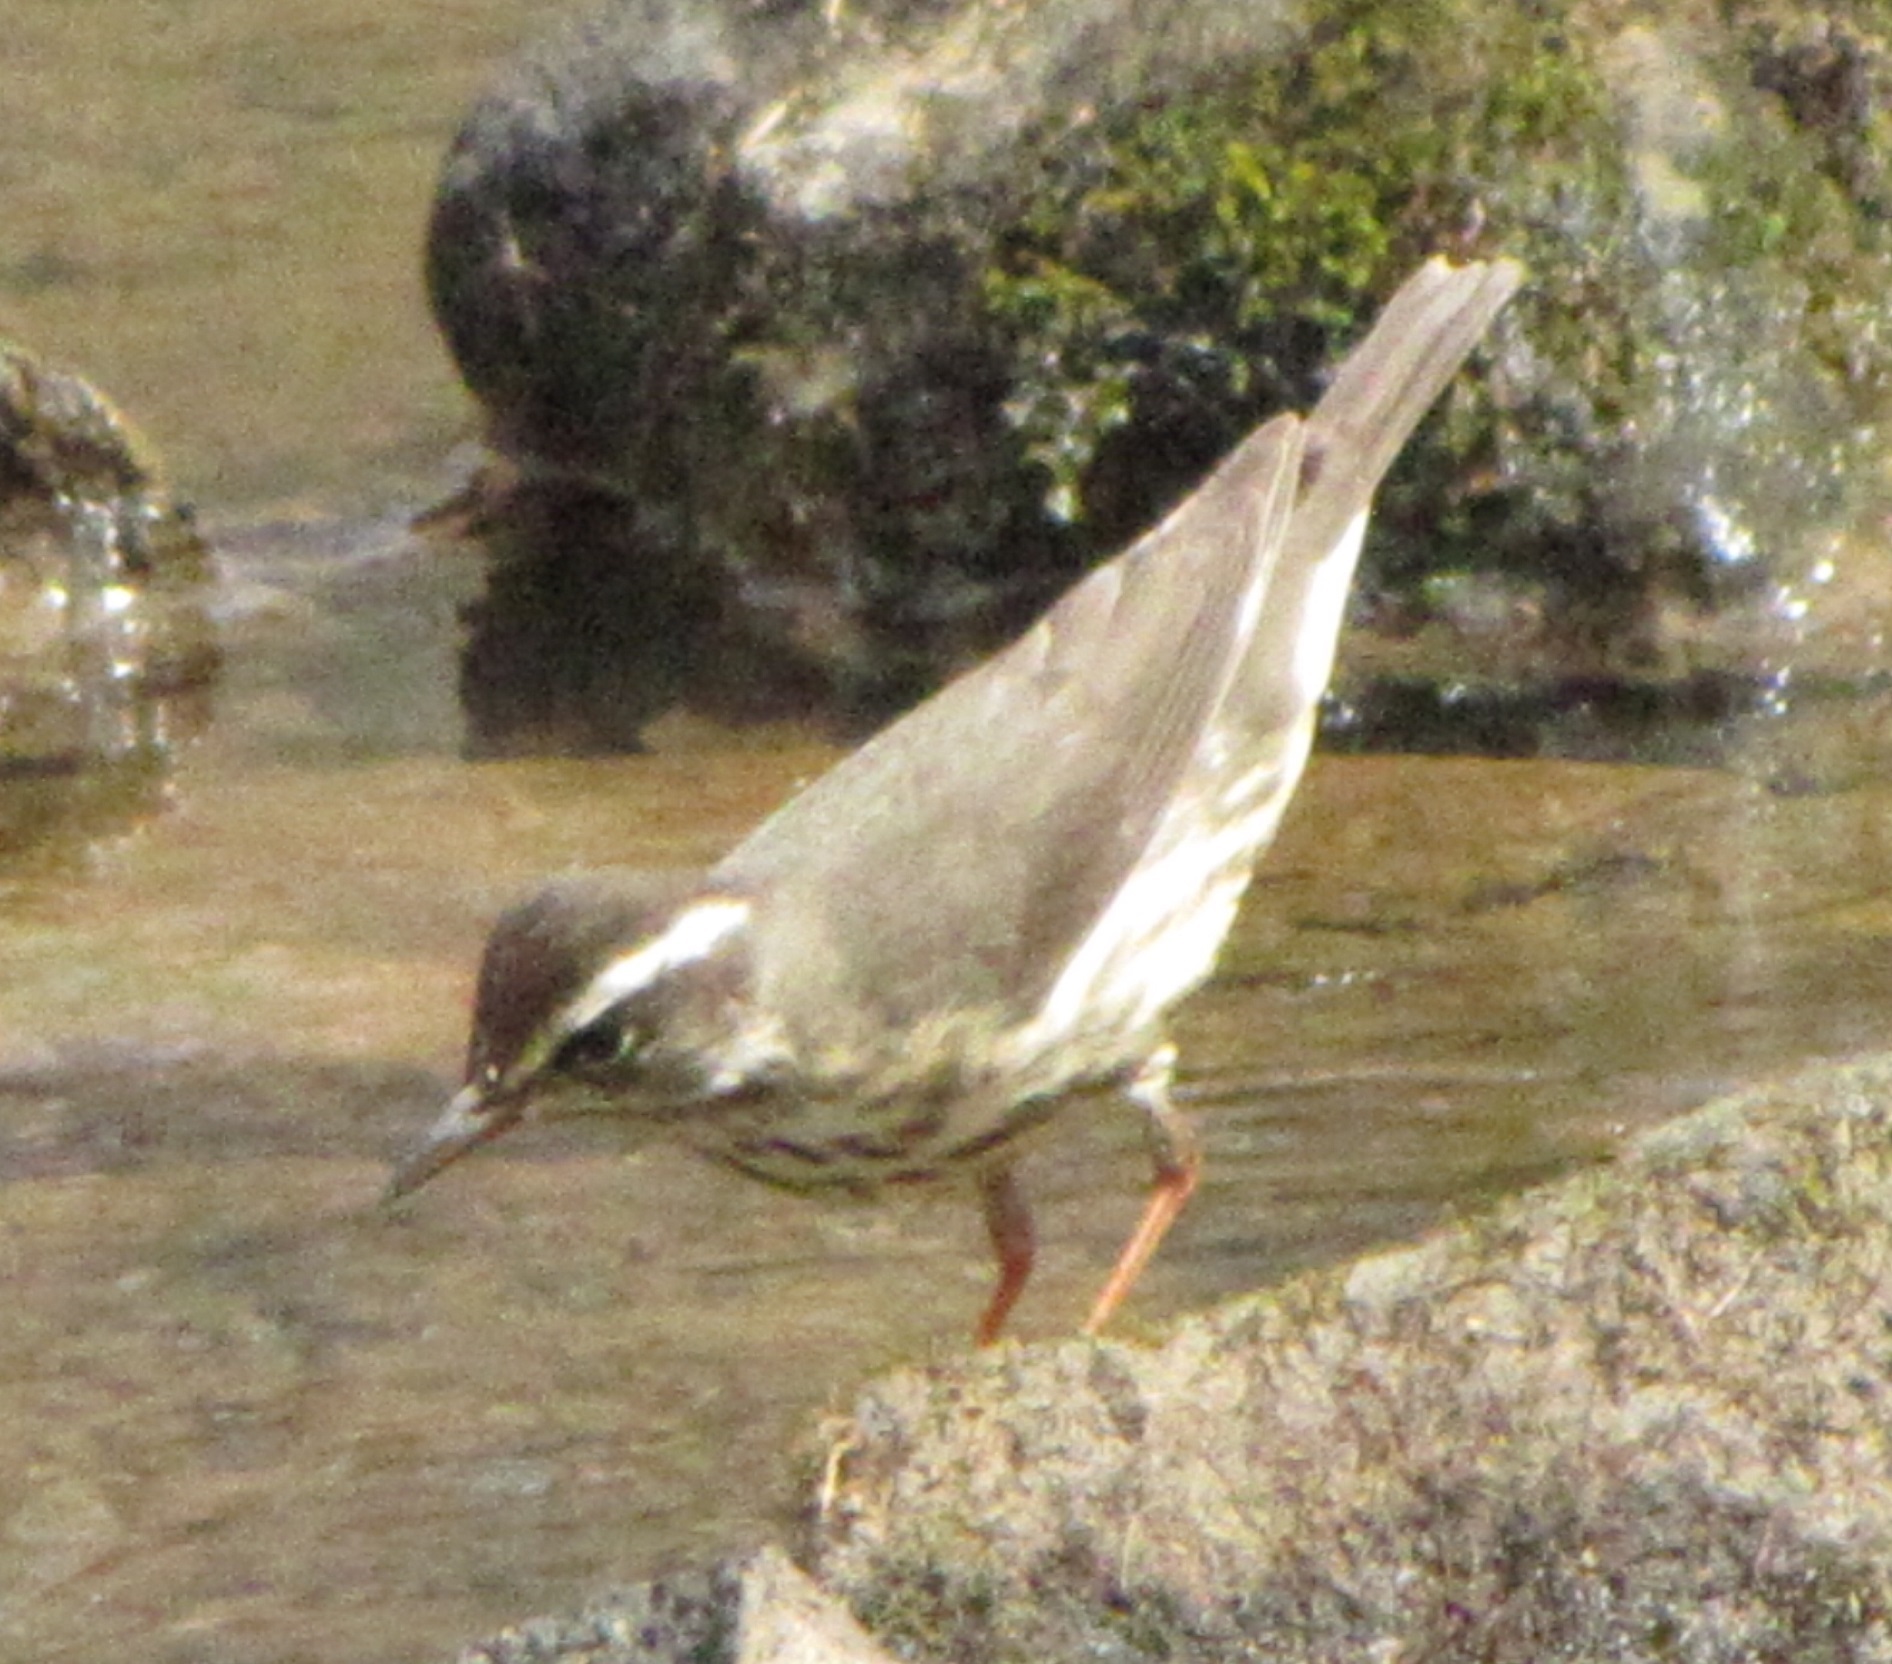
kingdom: Animalia
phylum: Chordata
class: Aves
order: Passeriformes
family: Parulidae
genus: Parkesia
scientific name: Parkesia motacilla
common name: Louisiana waterthrush
